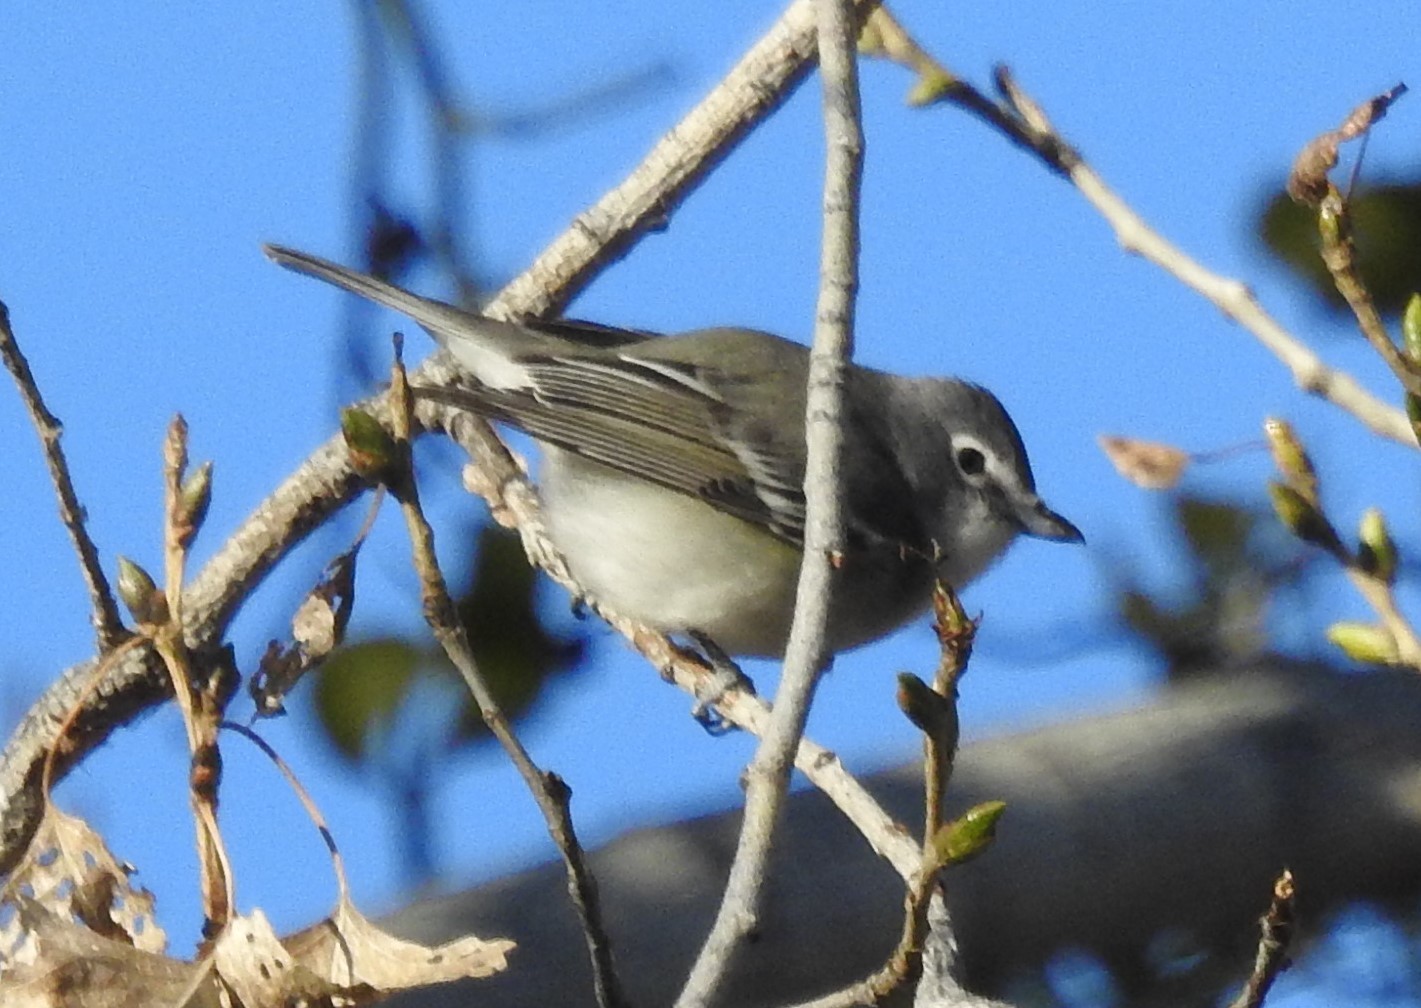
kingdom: Animalia
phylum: Chordata
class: Aves
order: Passeriformes
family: Vireonidae
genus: Vireo
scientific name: Vireo plumbeus
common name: Plumbeous vireo
